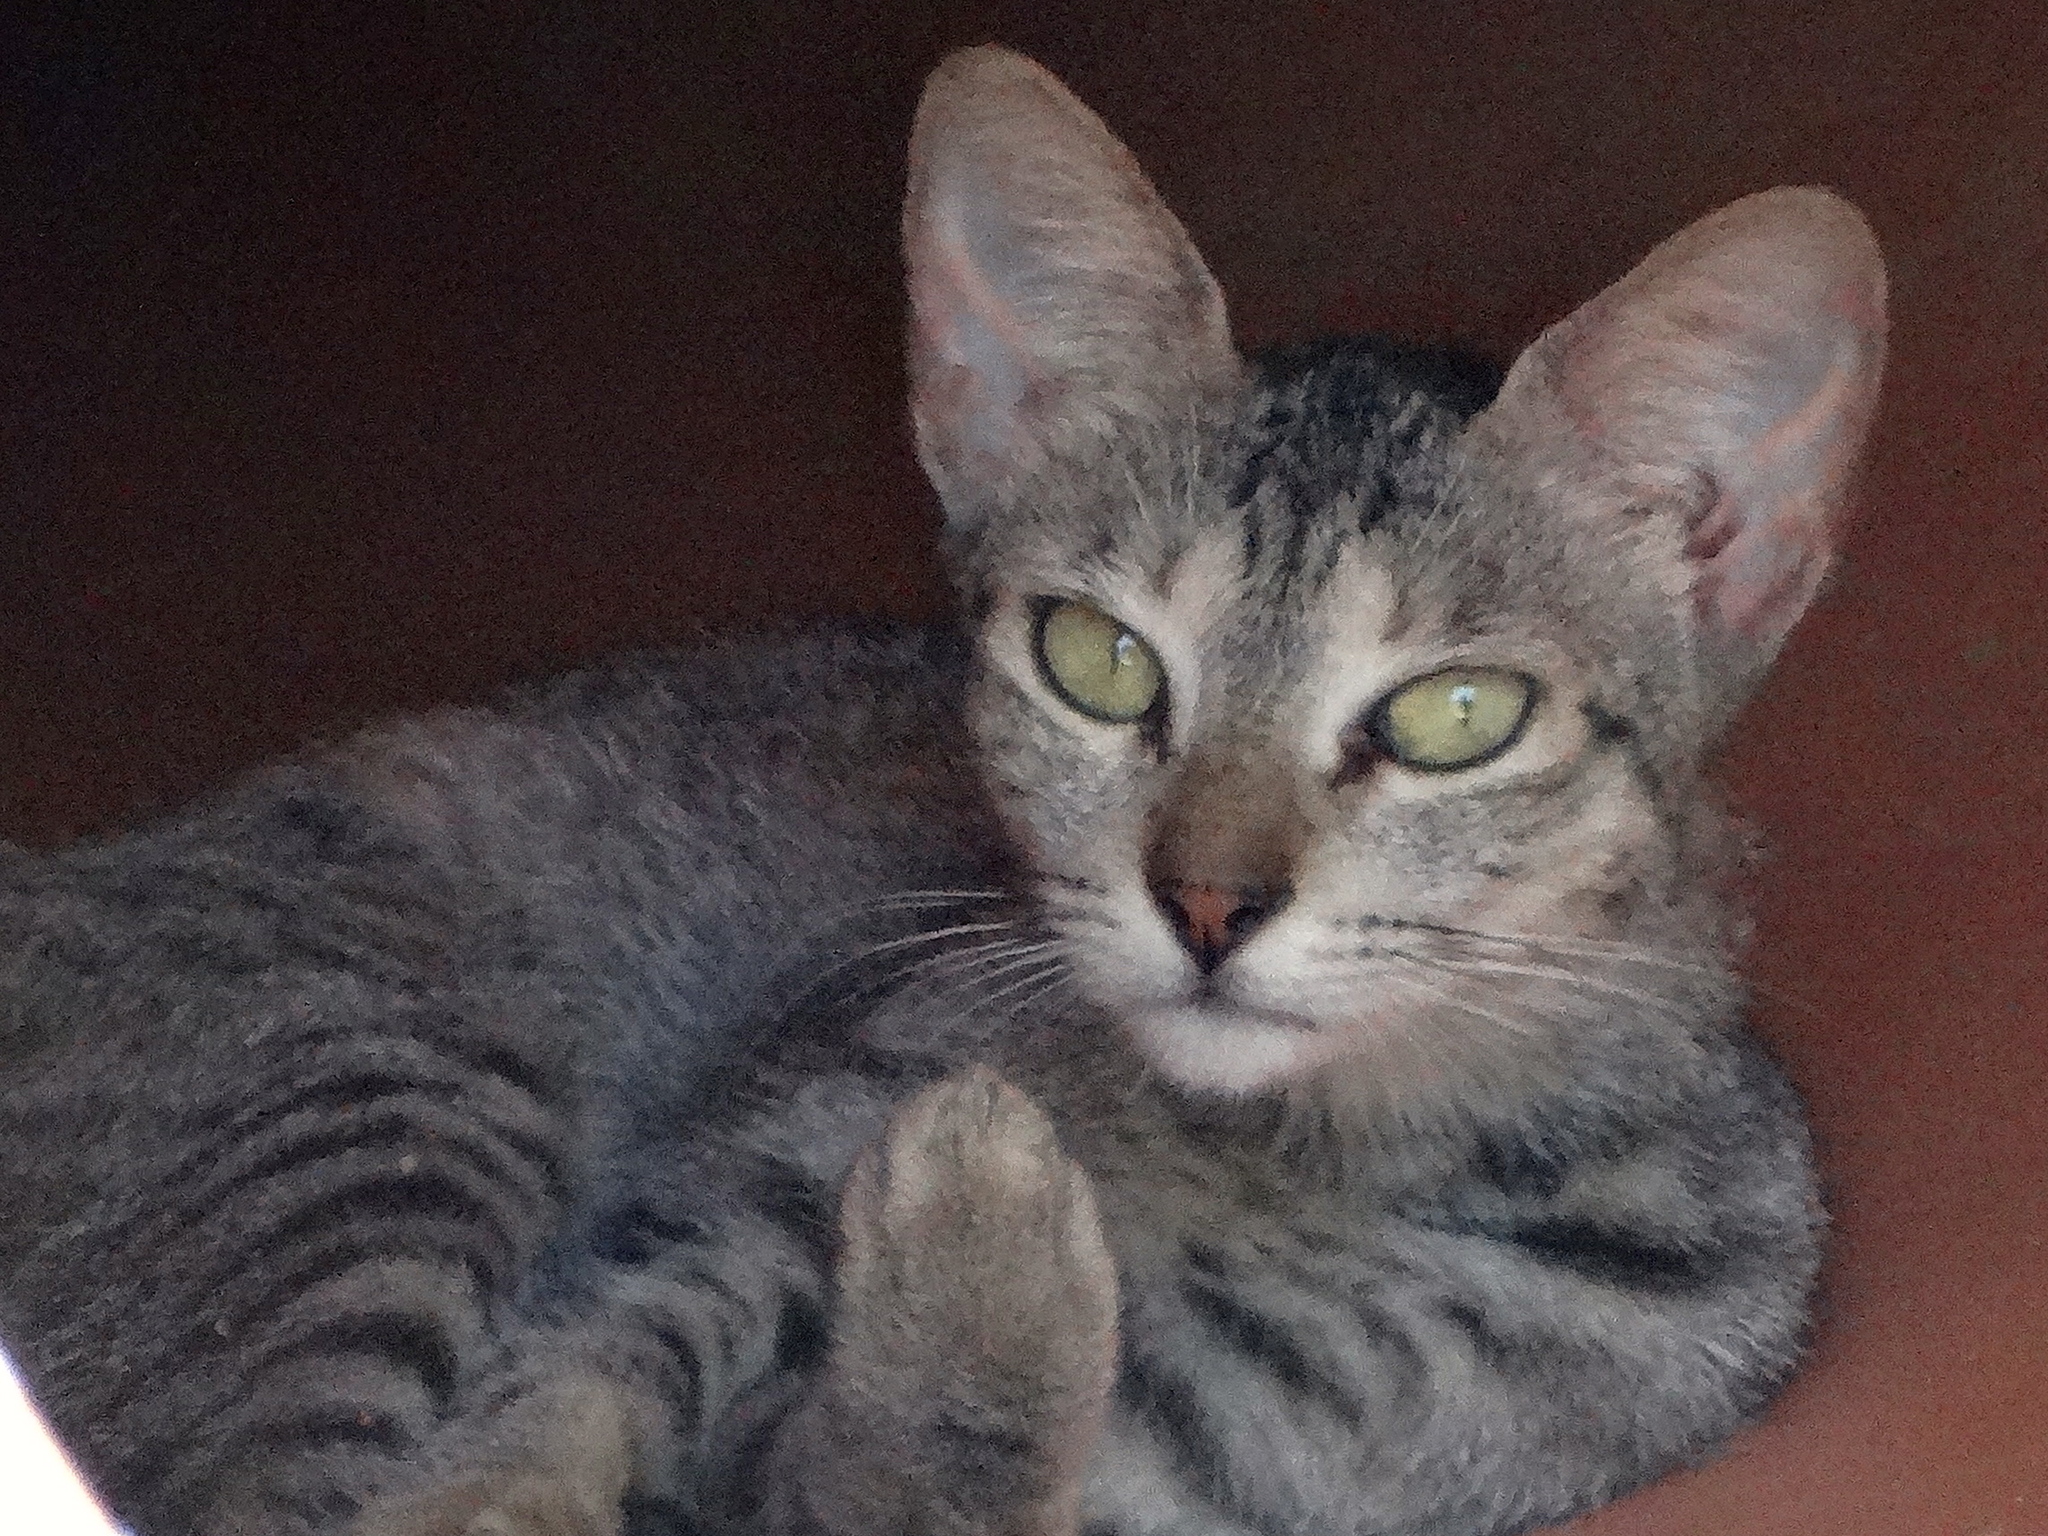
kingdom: Animalia
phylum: Chordata
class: Mammalia
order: Carnivora
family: Felidae
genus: Felis
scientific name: Felis catus
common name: Domestic cat
